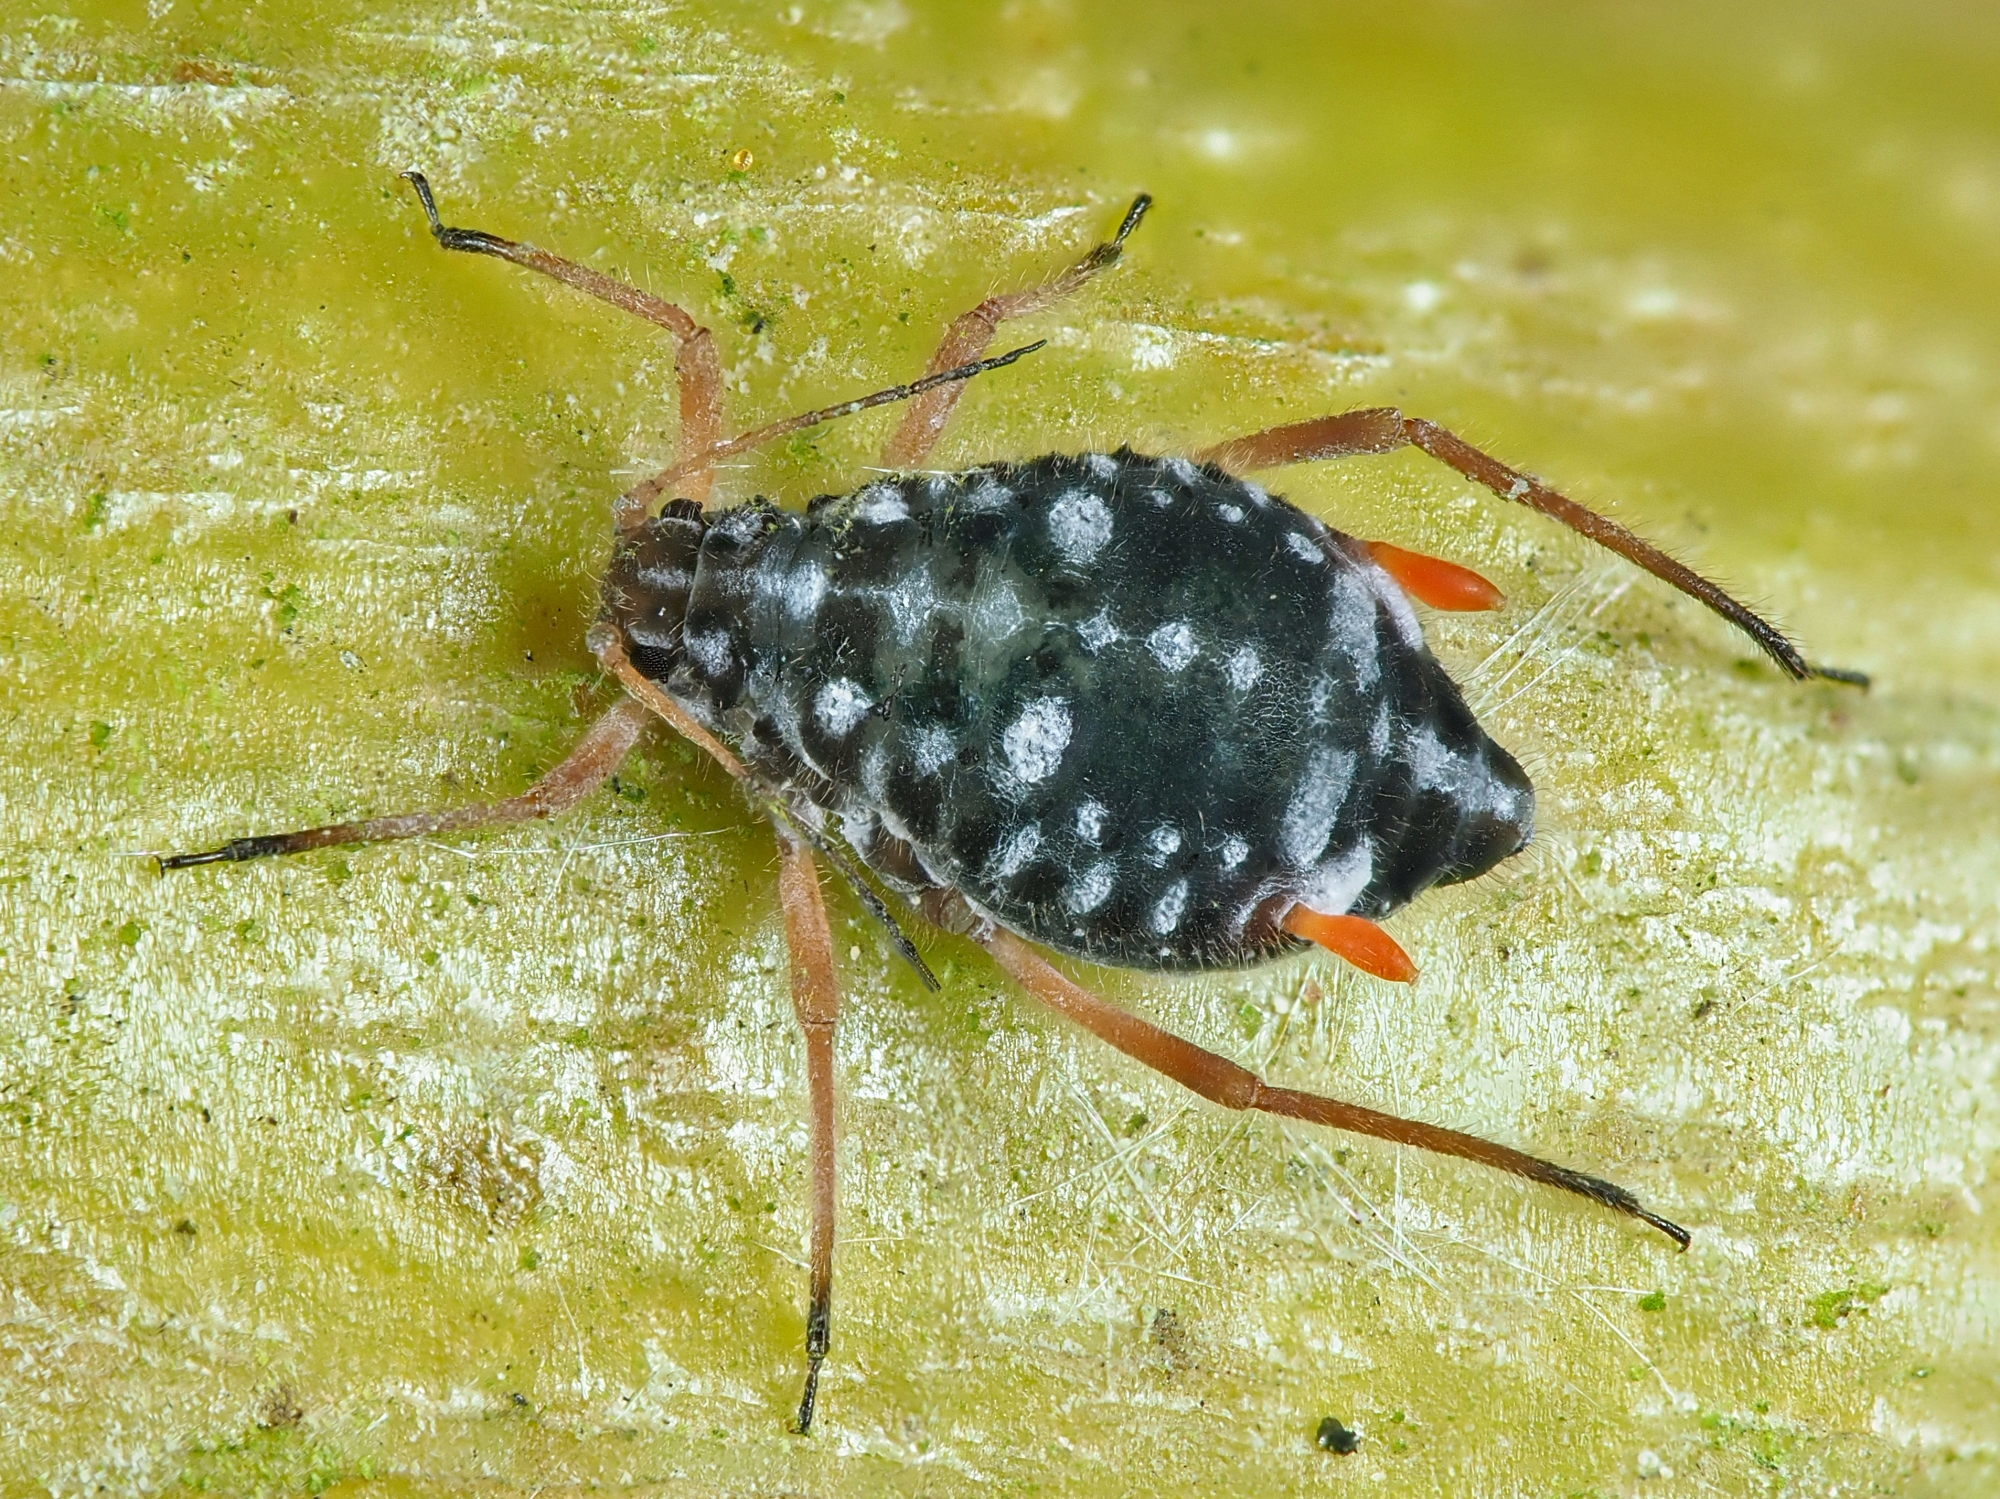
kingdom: Animalia
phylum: Arthropoda
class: Insecta
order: Hemiptera
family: Aphididae
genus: Pterocomma
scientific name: Pterocomma salicis
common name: Aphid
